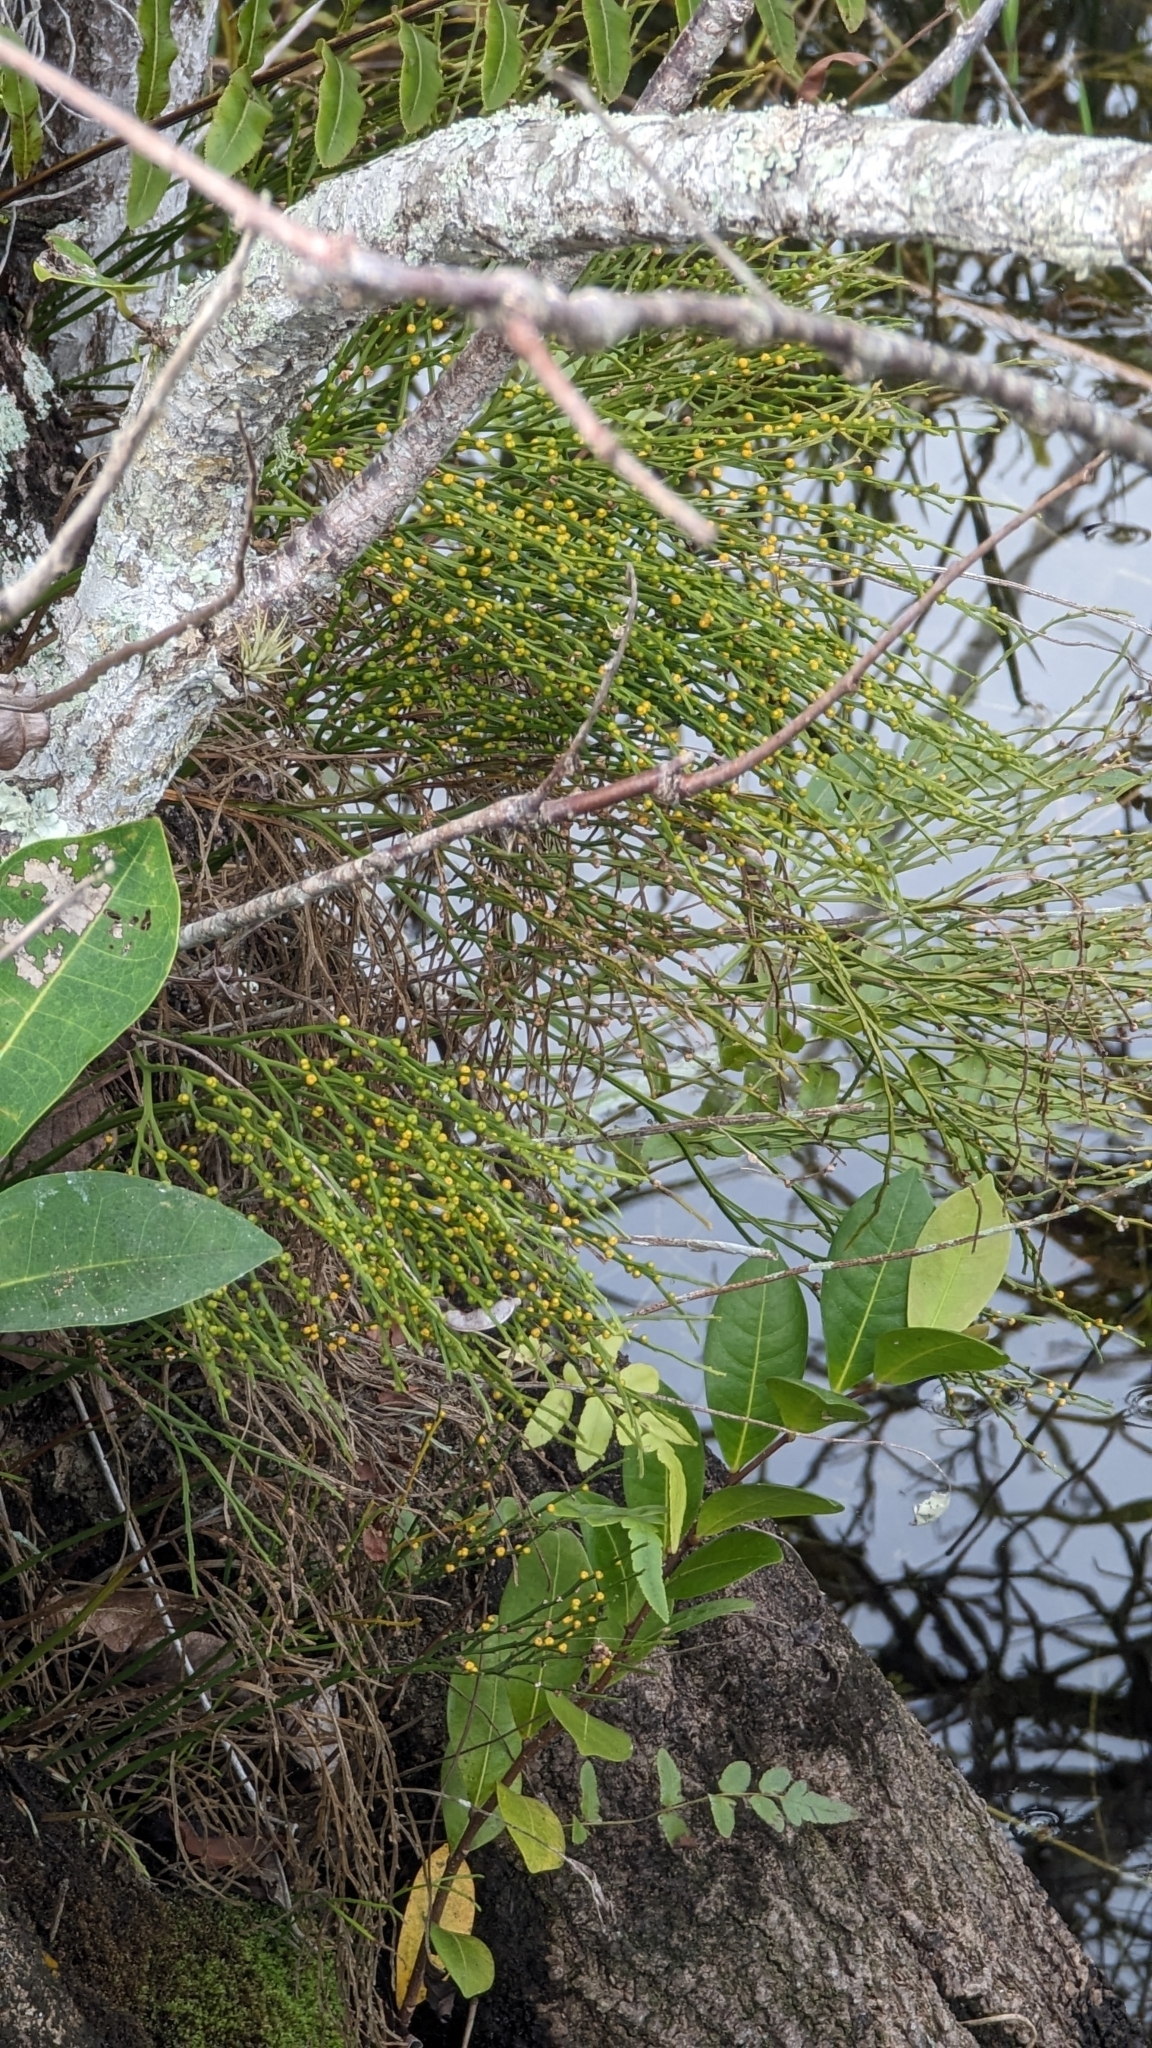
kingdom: Plantae
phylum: Tracheophyta
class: Polypodiopsida
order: Psilotales
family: Psilotaceae
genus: Psilotum
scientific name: Psilotum nudum
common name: Skeleton fork fern
